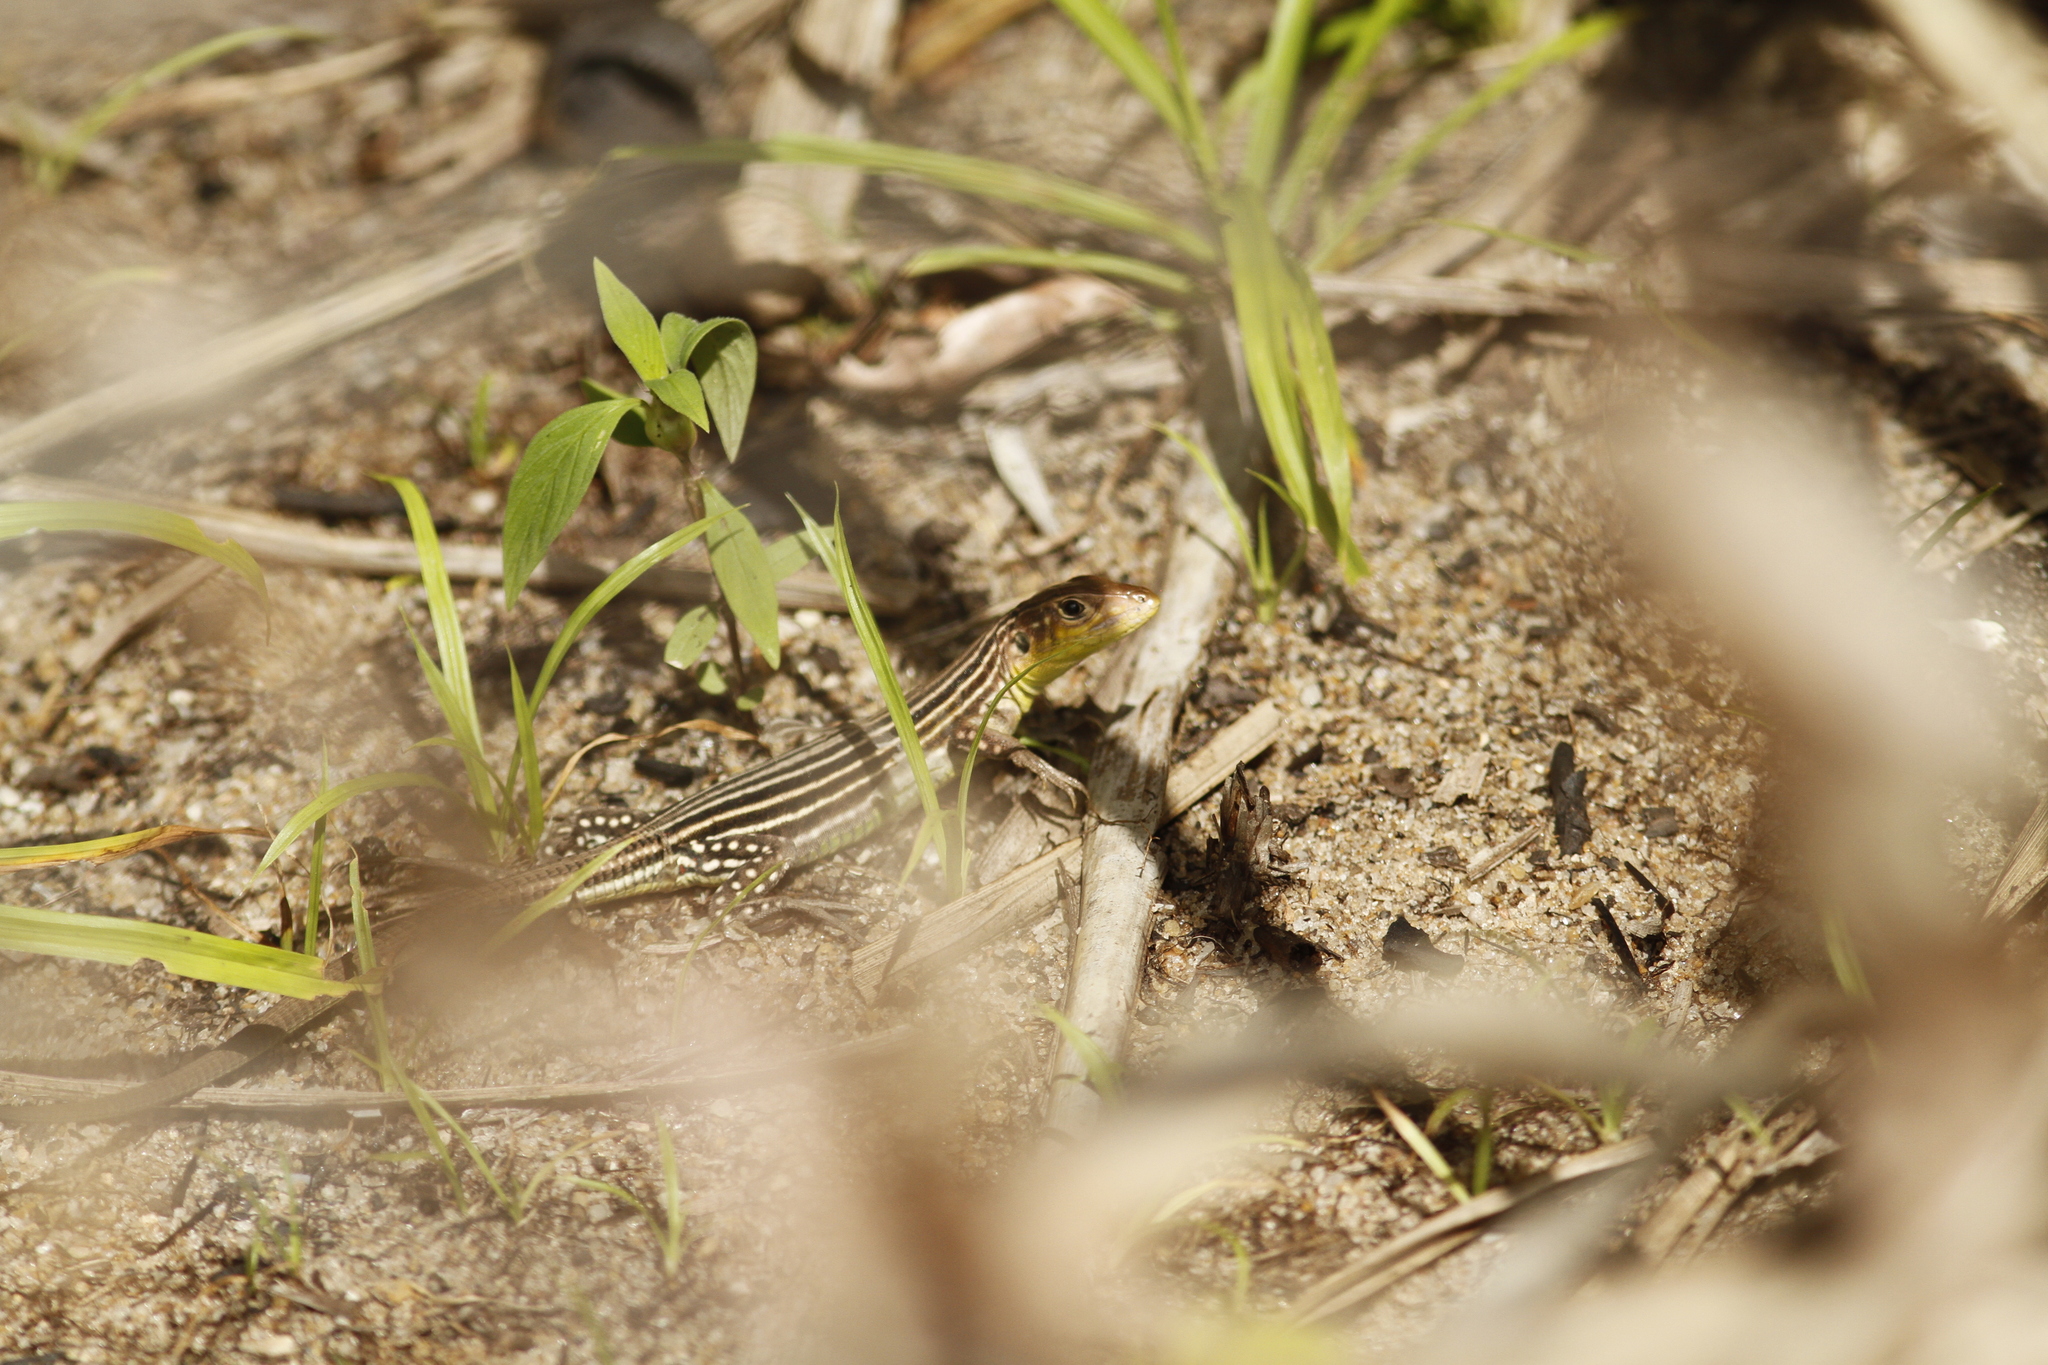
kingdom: Animalia
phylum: Chordata
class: Squamata
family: Teiidae
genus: Cnemidophorus
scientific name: Cnemidophorus lemniscatus
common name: Rainbow whiptail
